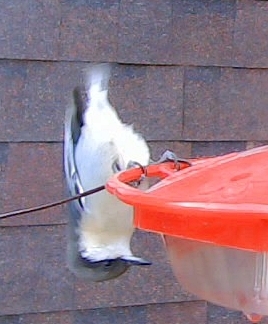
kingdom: Animalia
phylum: Chordata
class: Aves
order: Passeriformes
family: Sittidae
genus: Sitta
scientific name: Sitta pygmaea
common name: Pygmy nuthatch
